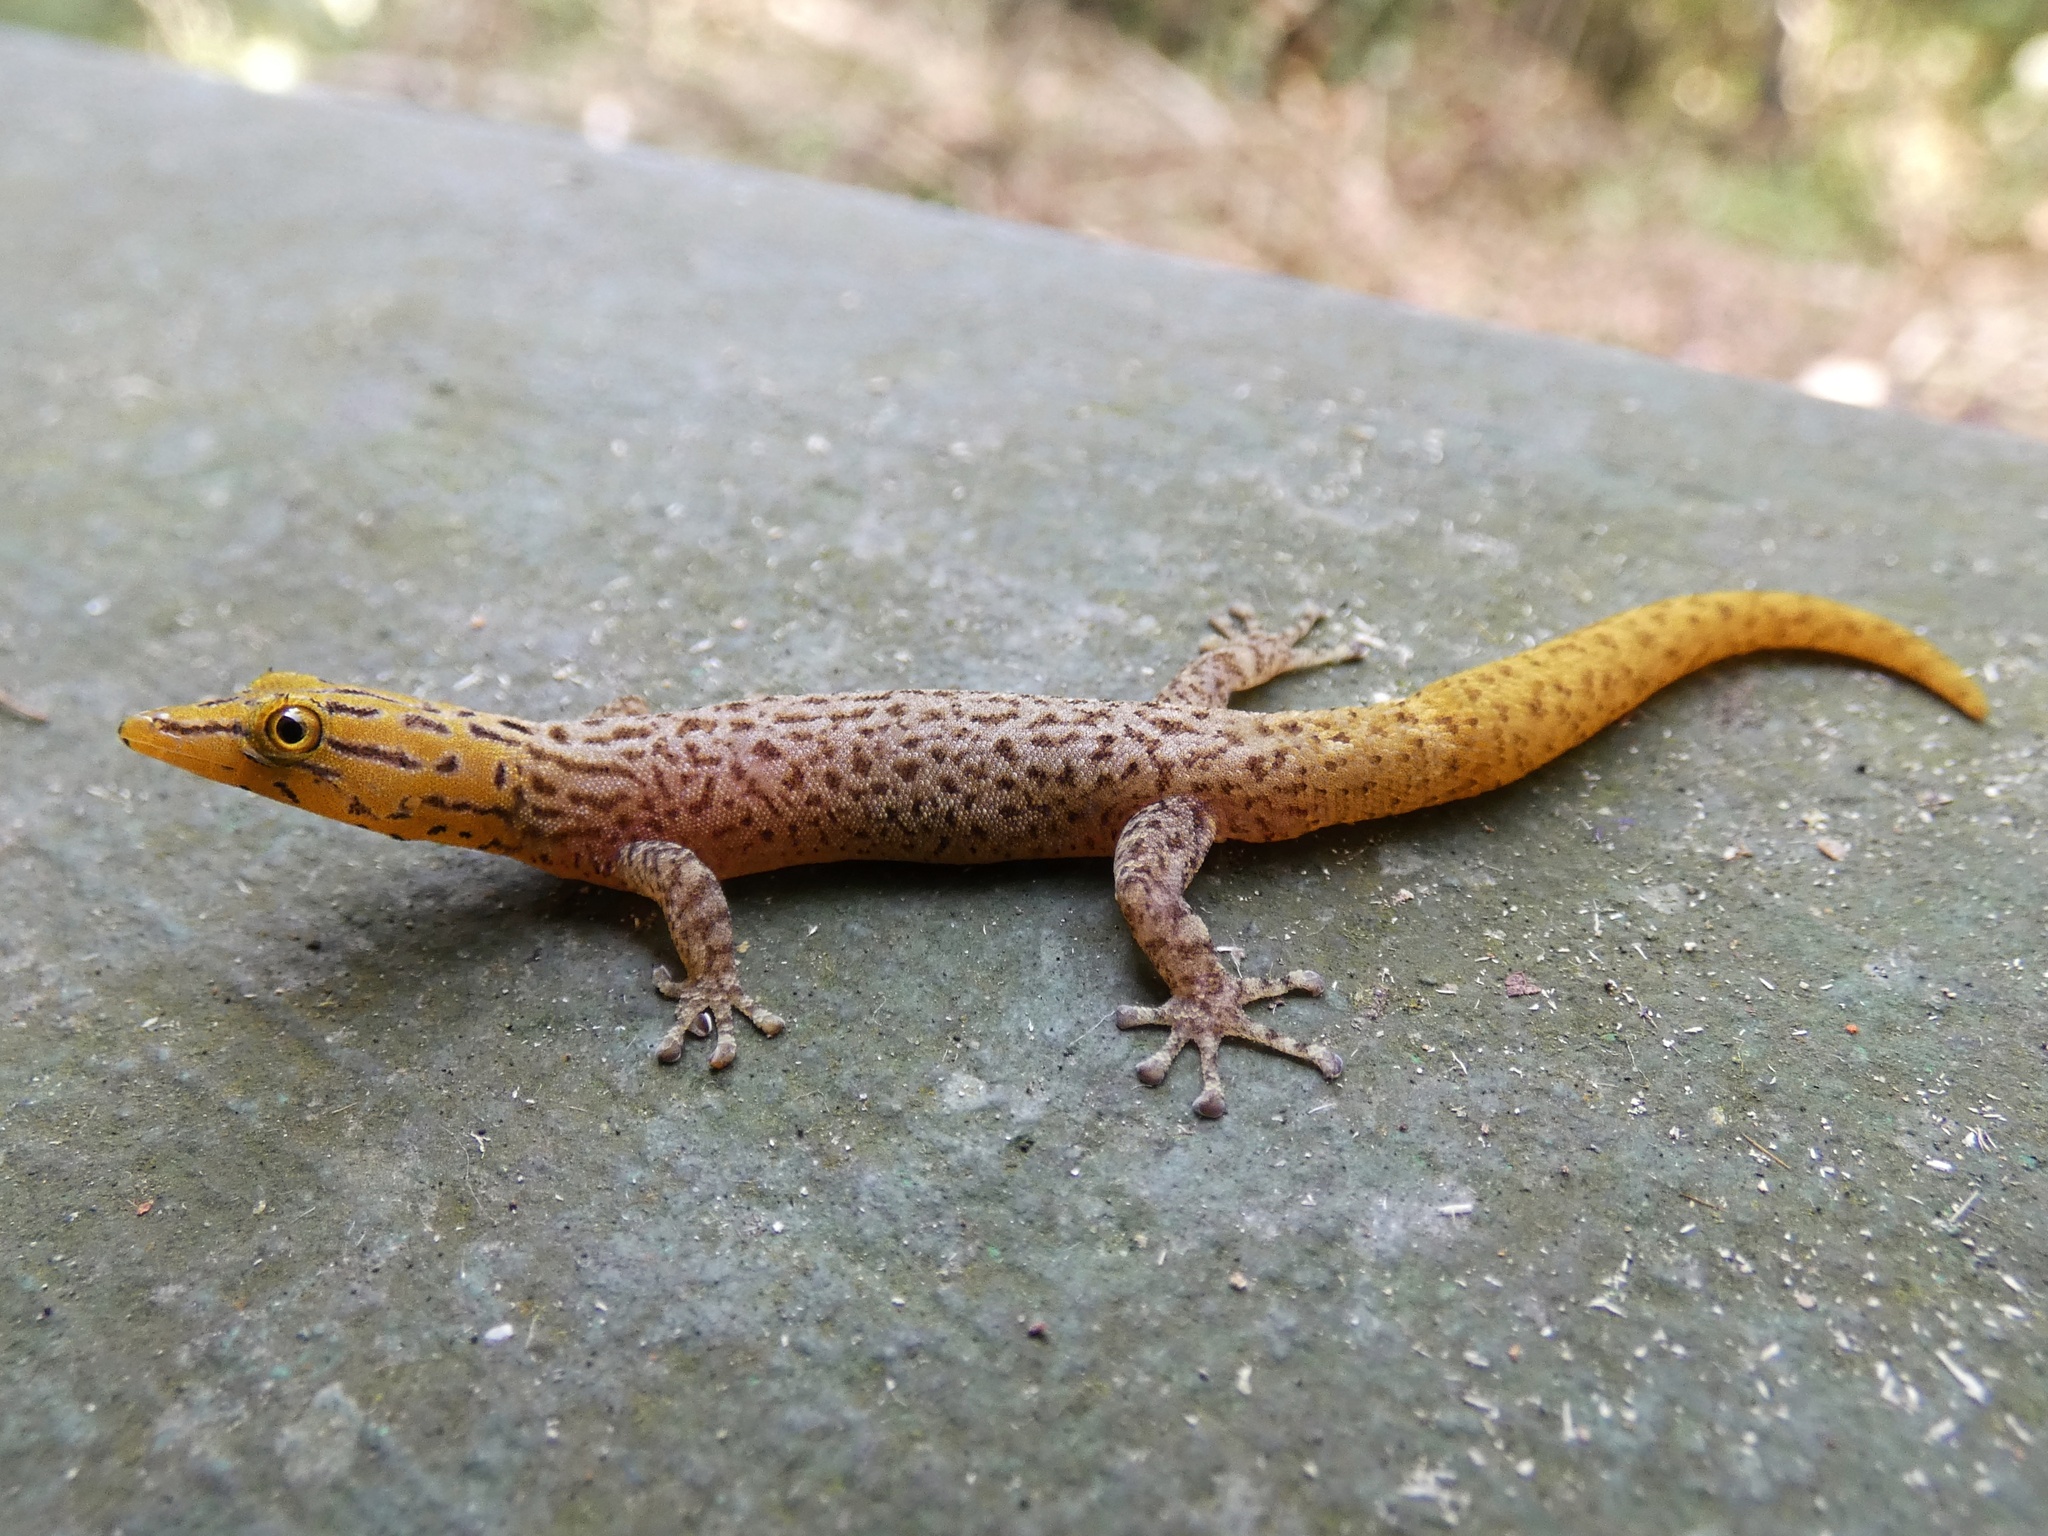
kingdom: Animalia
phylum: Chordata
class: Squamata
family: Sphaerodactylidae
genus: Sphaerodactylus
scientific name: Sphaerodactylus homolepis
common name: Caribbean least gecko
